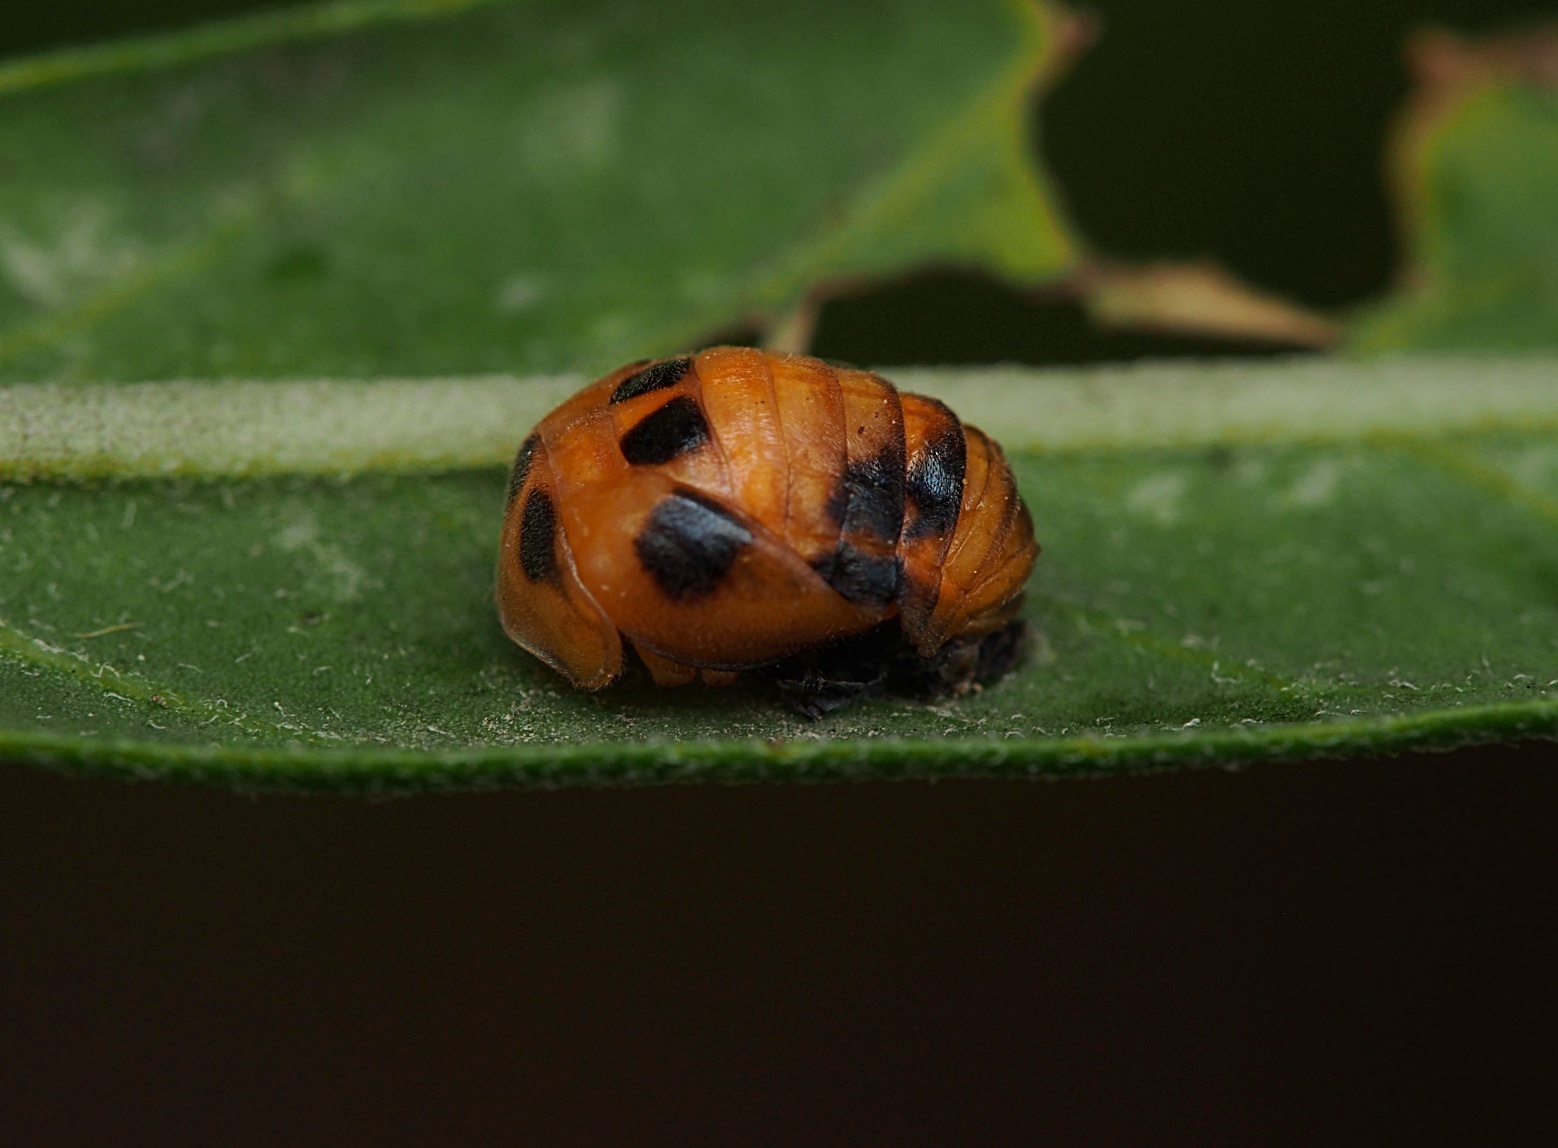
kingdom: Animalia
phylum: Arthropoda
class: Insecta
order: Coleoptera
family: Coccinellidae
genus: Coelophora
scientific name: Coelophora inaequalis
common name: Common australian lady beetle
